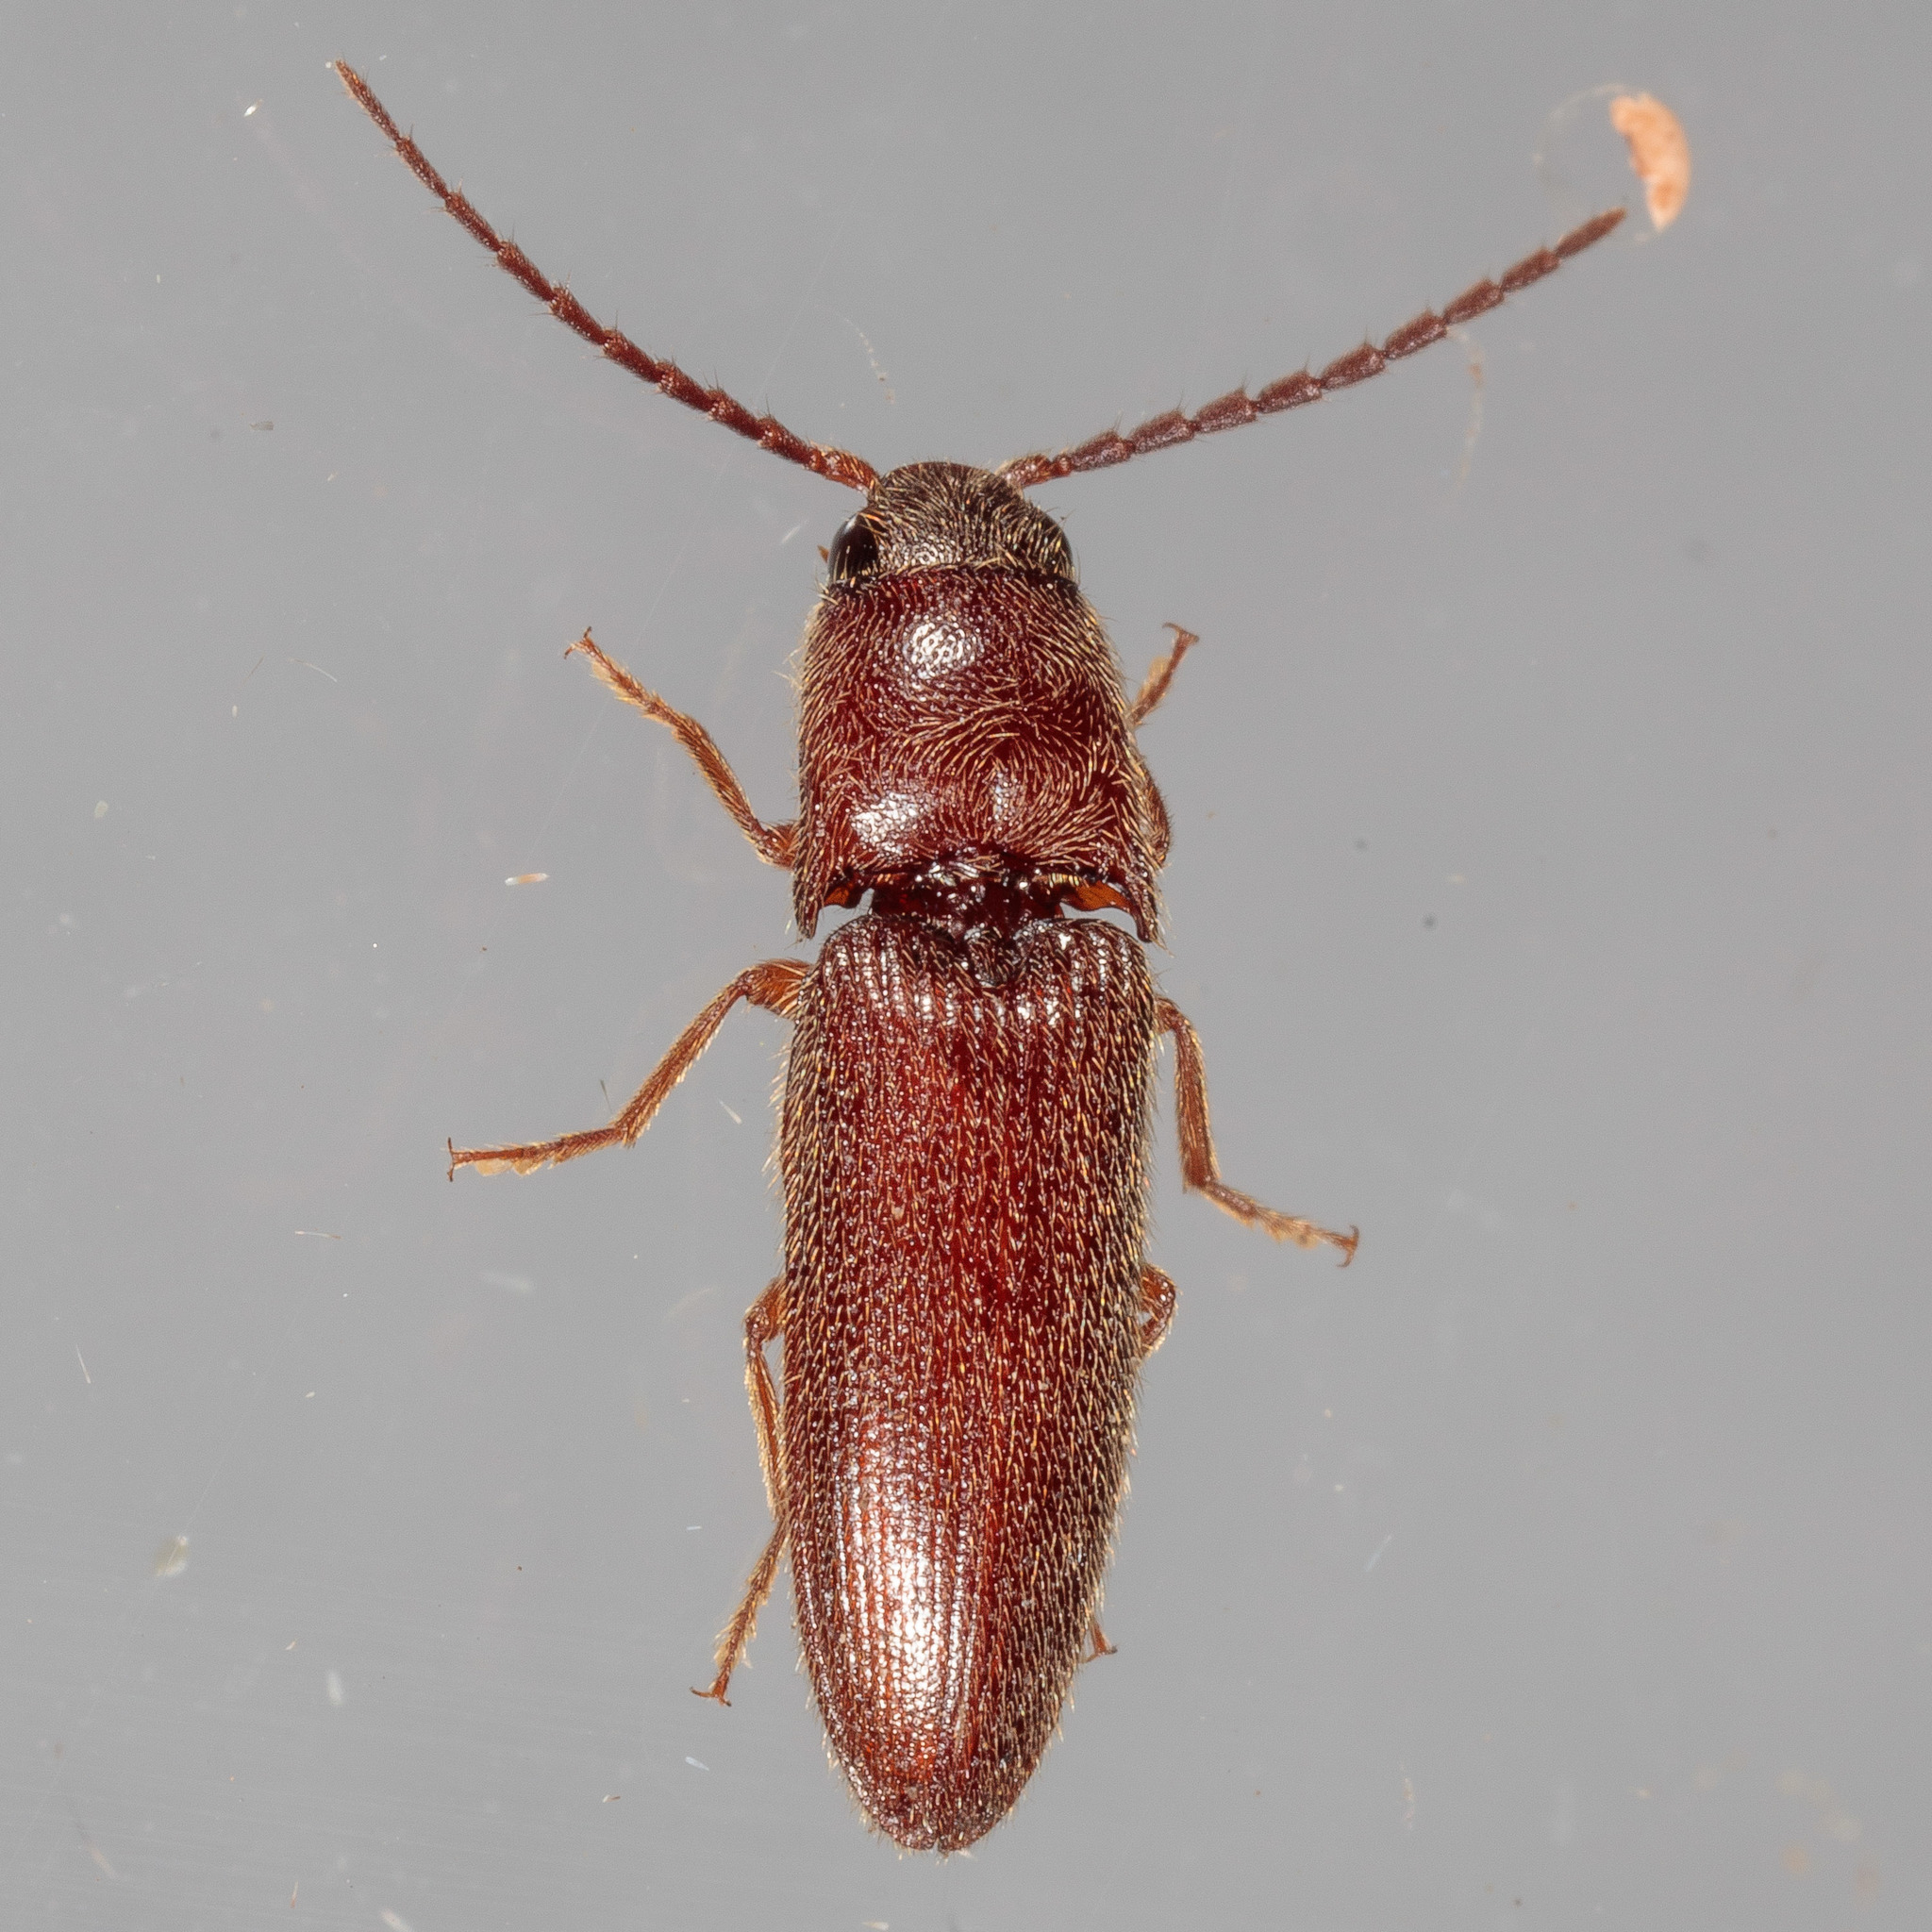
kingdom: Animalia
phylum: Arthropoda
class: Insecta
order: Coleoptera
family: Elateridae
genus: Dipropus
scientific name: Dipropus
